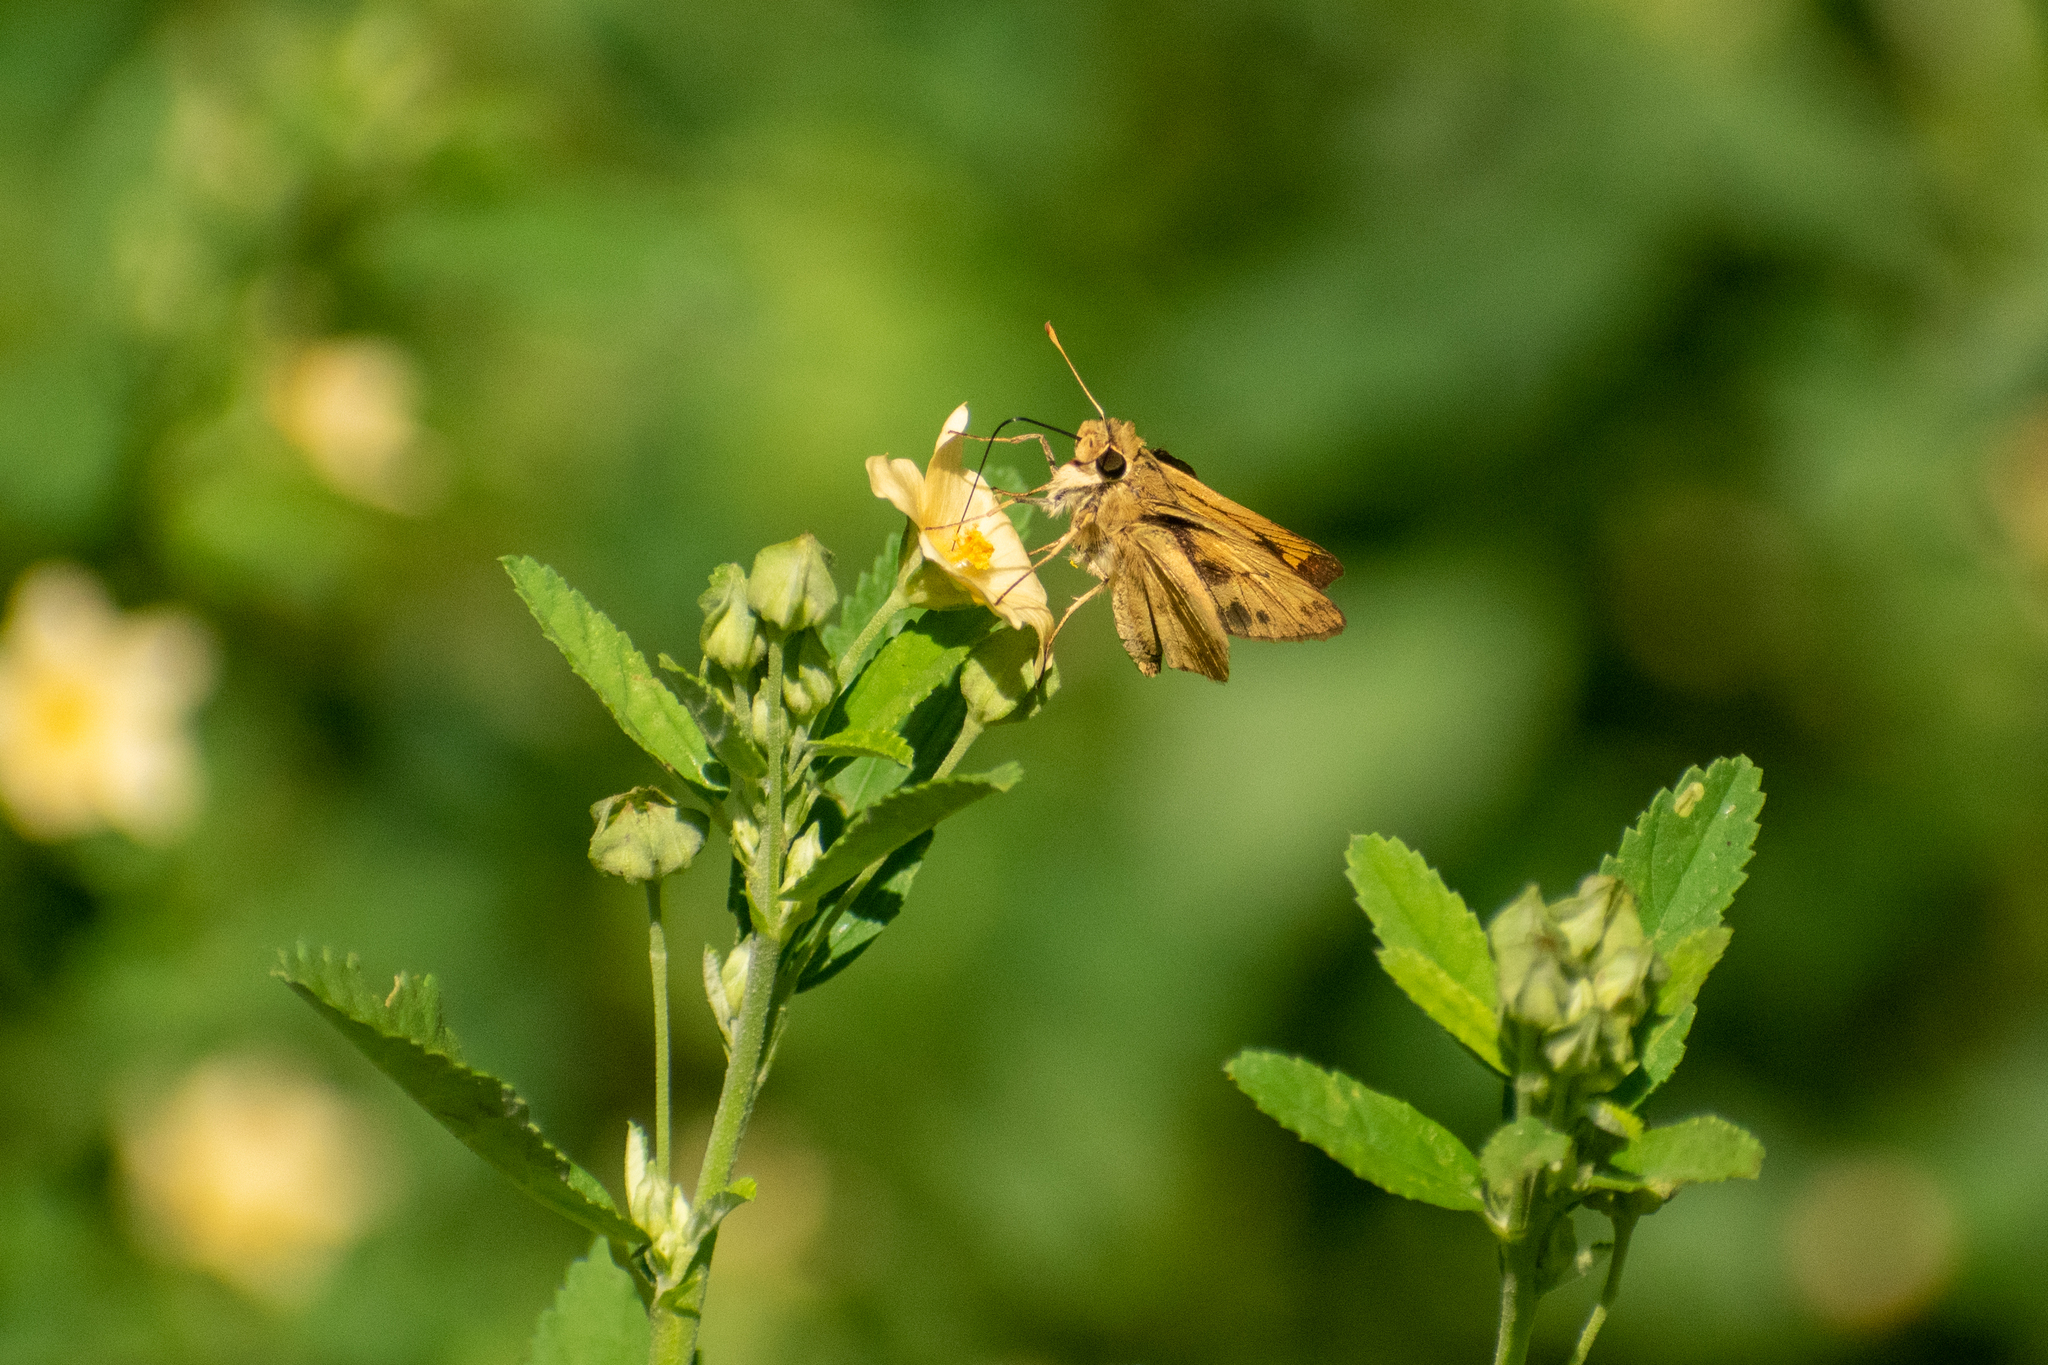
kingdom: Animalia
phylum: Arthropoda
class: Insecta
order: Lepidoptera
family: Hesperiidae
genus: Polites
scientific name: Polites vibex
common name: Whirlabout
